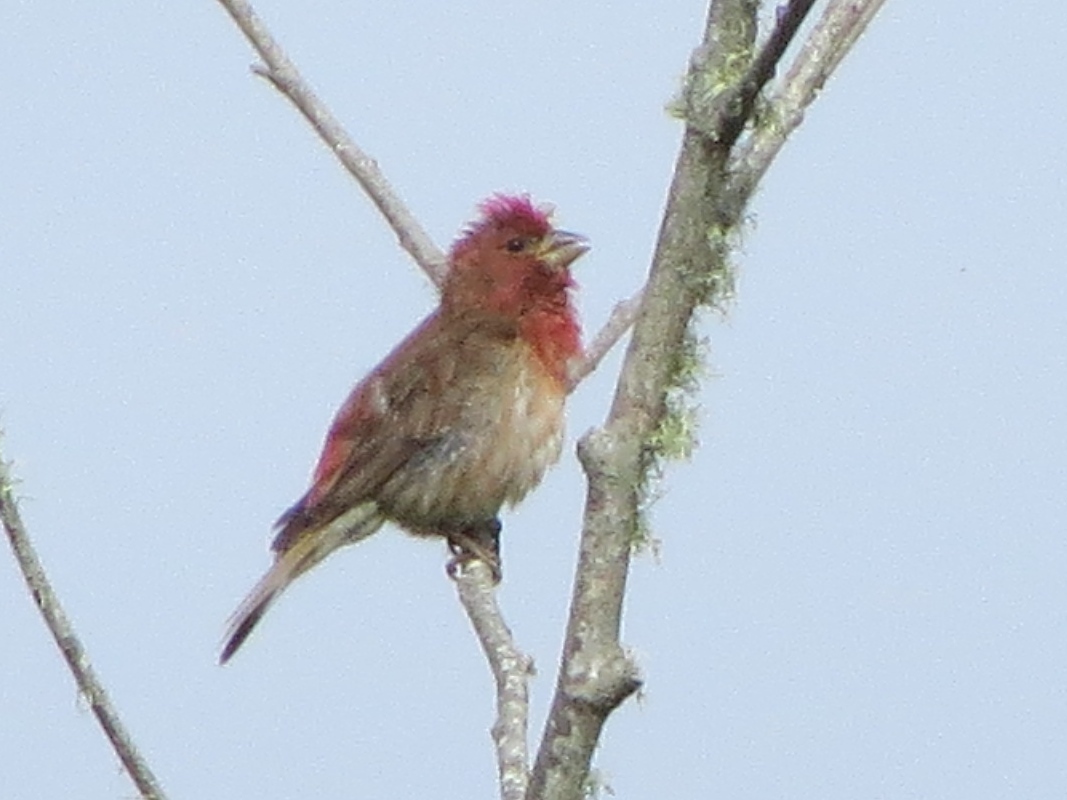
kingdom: Animalia
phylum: Chordata
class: Aves
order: Passeriformes
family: Fringillidae
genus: Haemorhous
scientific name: Haemorhous purpureus
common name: Purple finch
